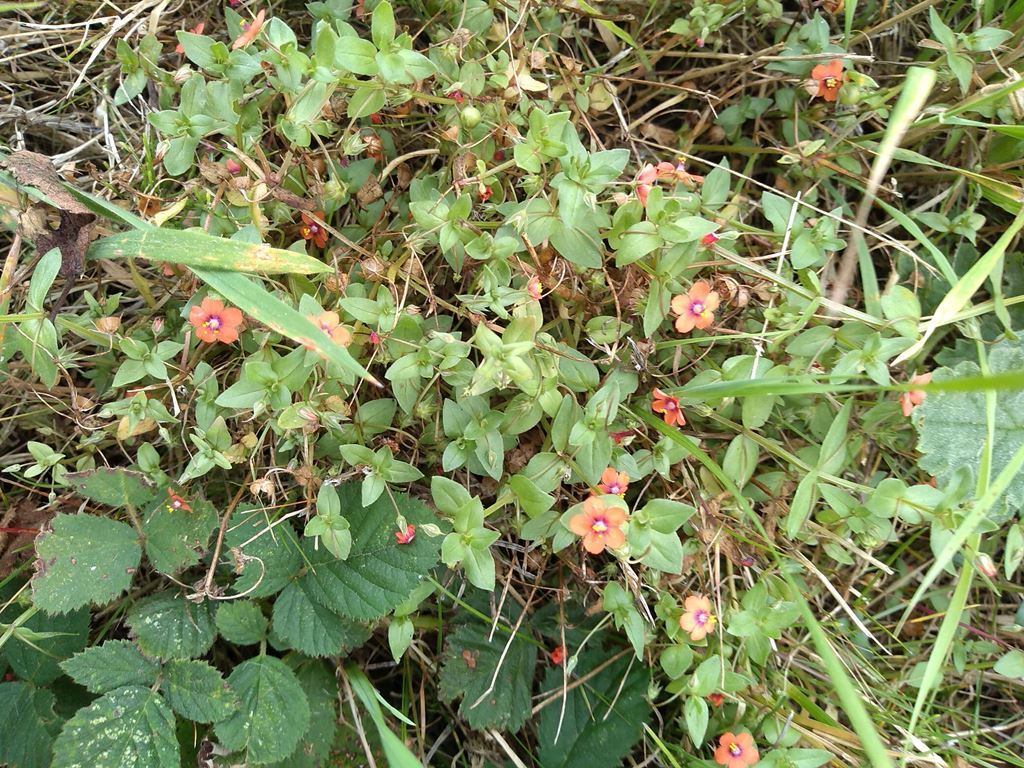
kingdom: Plantae
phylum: Tracheophyta
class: Magnoliopsida
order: Ericales
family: Primulaceae
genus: Lysimachia
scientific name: Lysimachia arvensis
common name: Scarlet pimpernel
